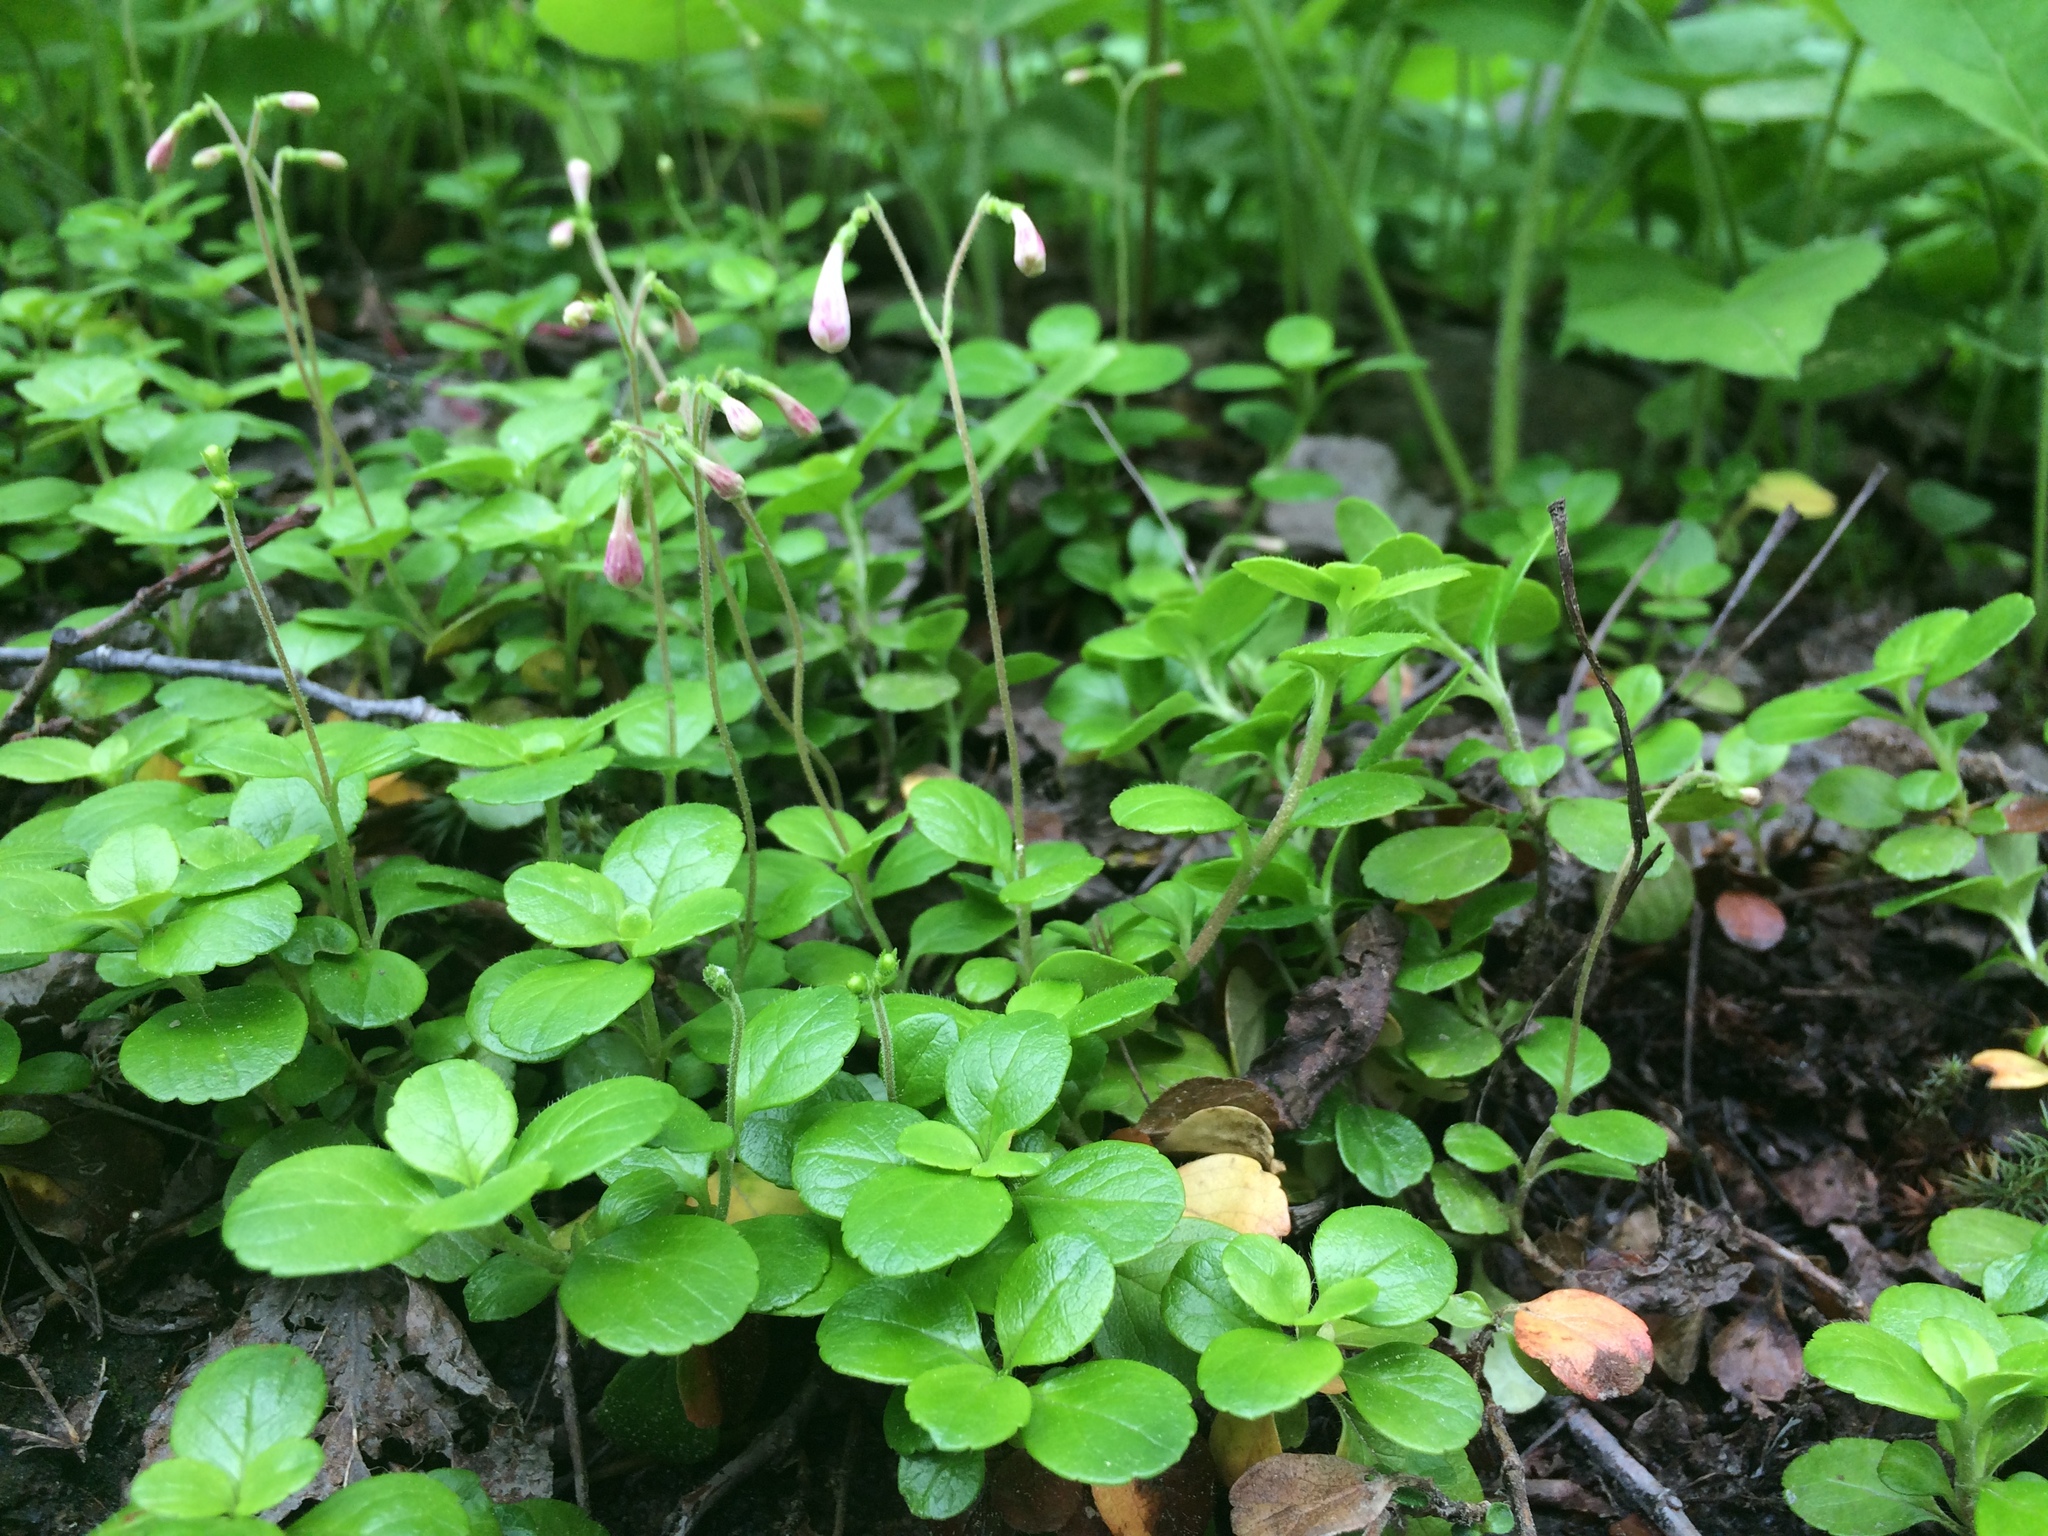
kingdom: Plantae
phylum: Tracheophyta
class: Magnoliopsida
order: Dipsacales
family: Caprifoliaceae
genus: Linnaea
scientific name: Linnaea borealis
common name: Twinflower
